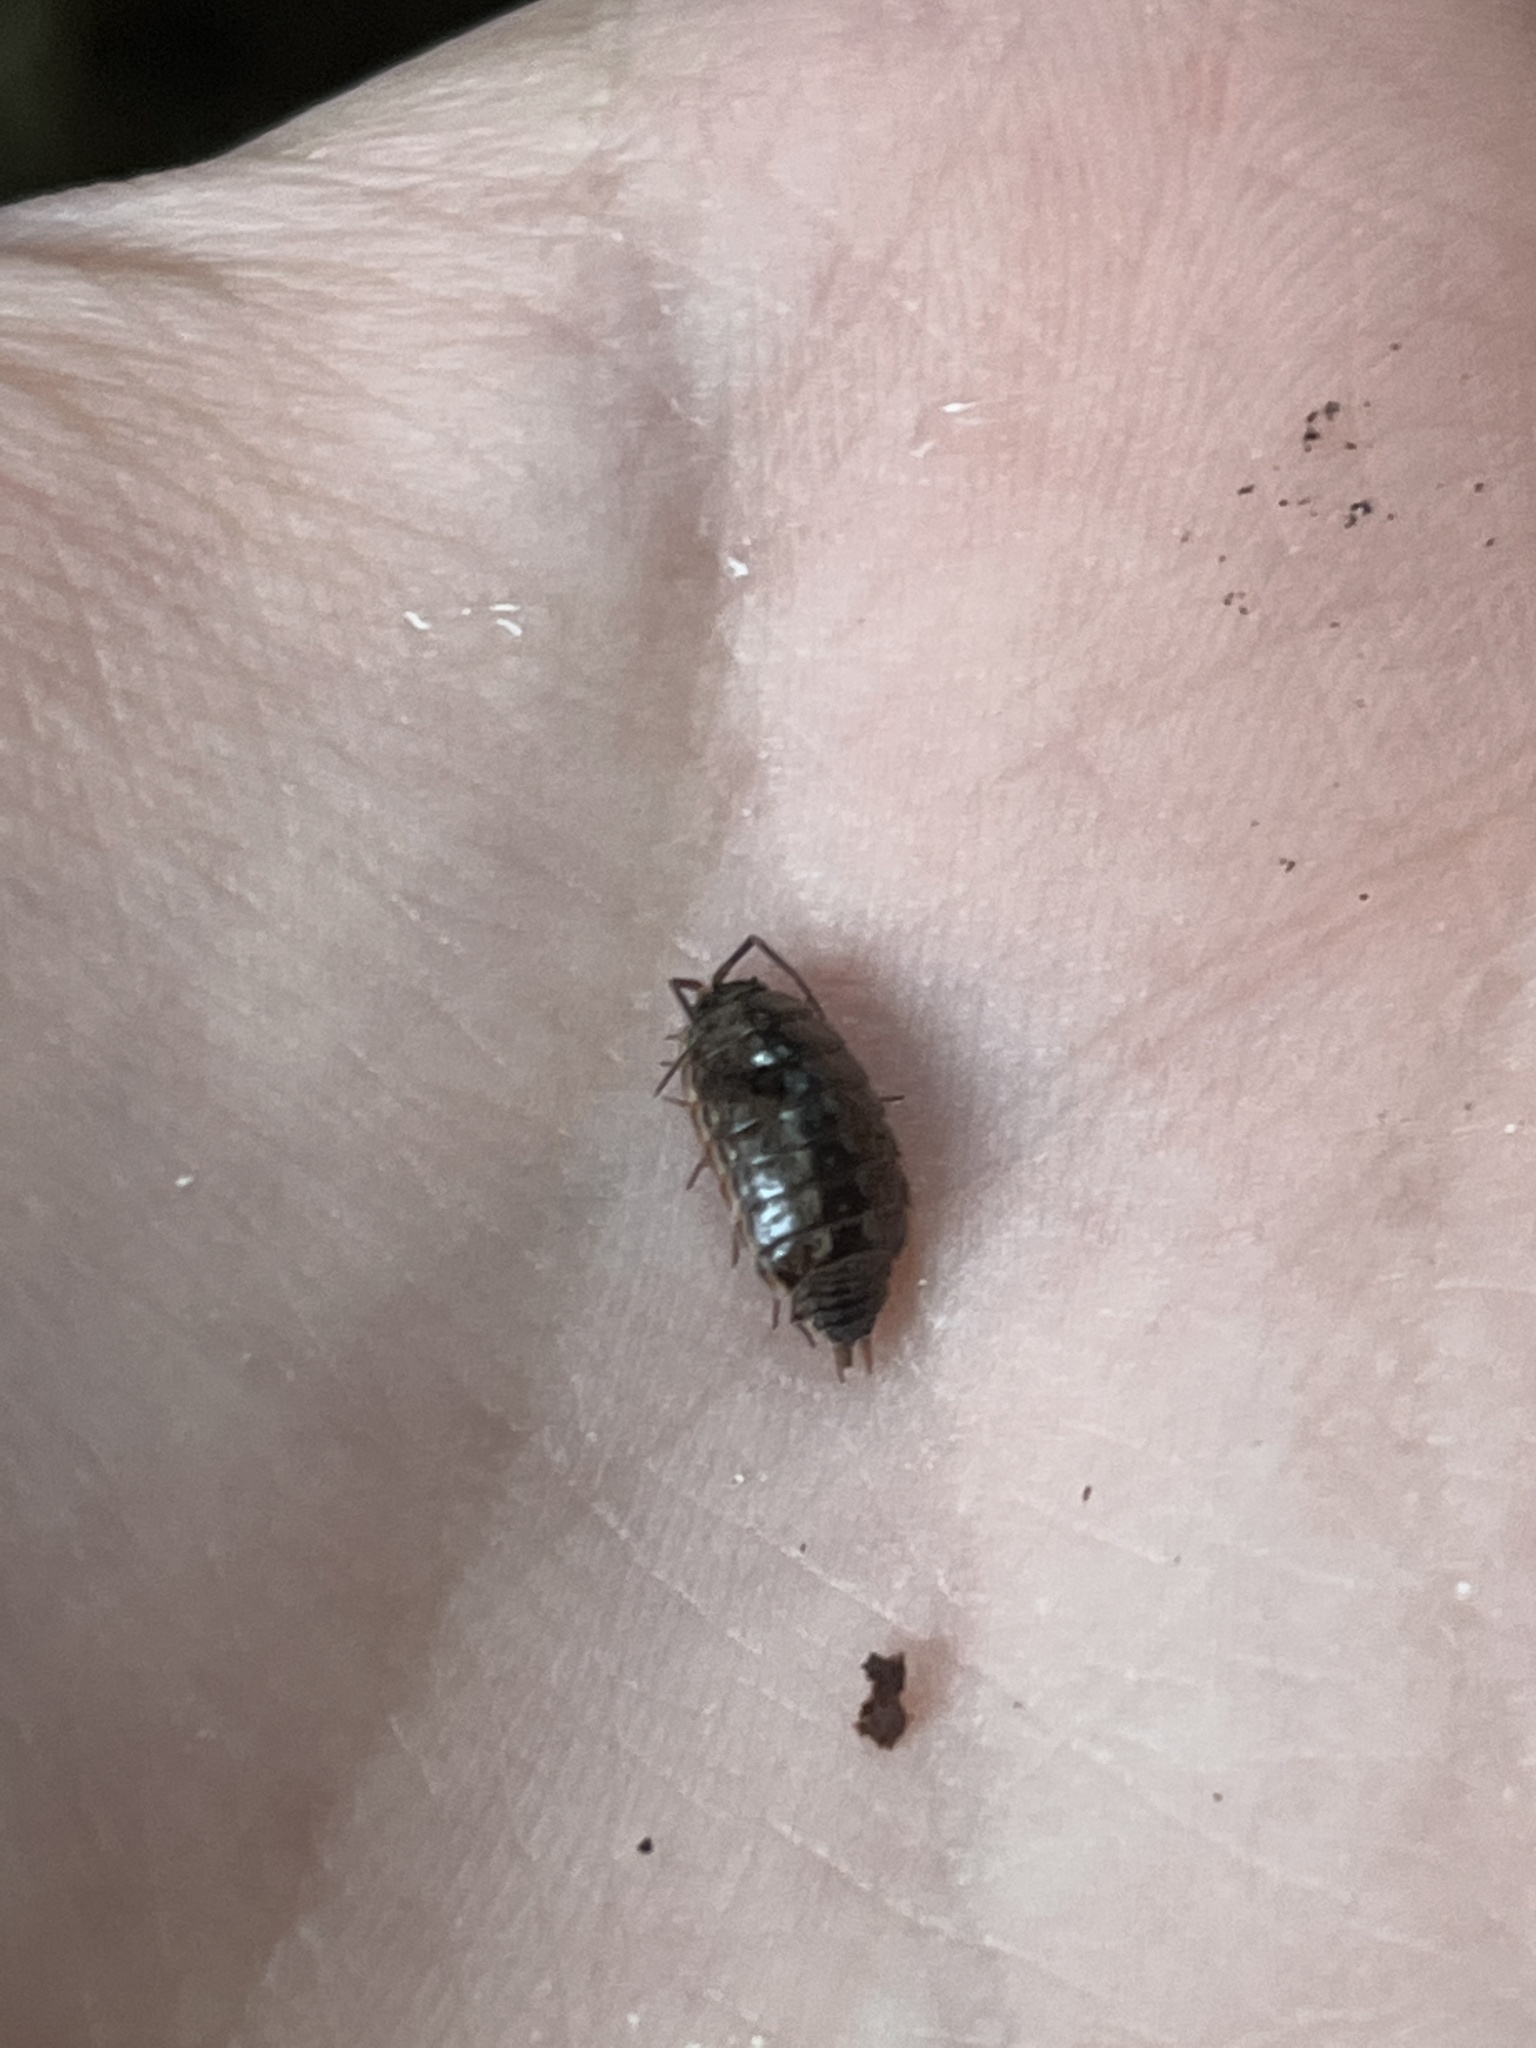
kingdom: Animalia
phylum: Arthropoda
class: Malacostraca
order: Isopoda
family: Philosciidae
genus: Philoscia
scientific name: Philoscia muscorum
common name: Common striped woodlouse
